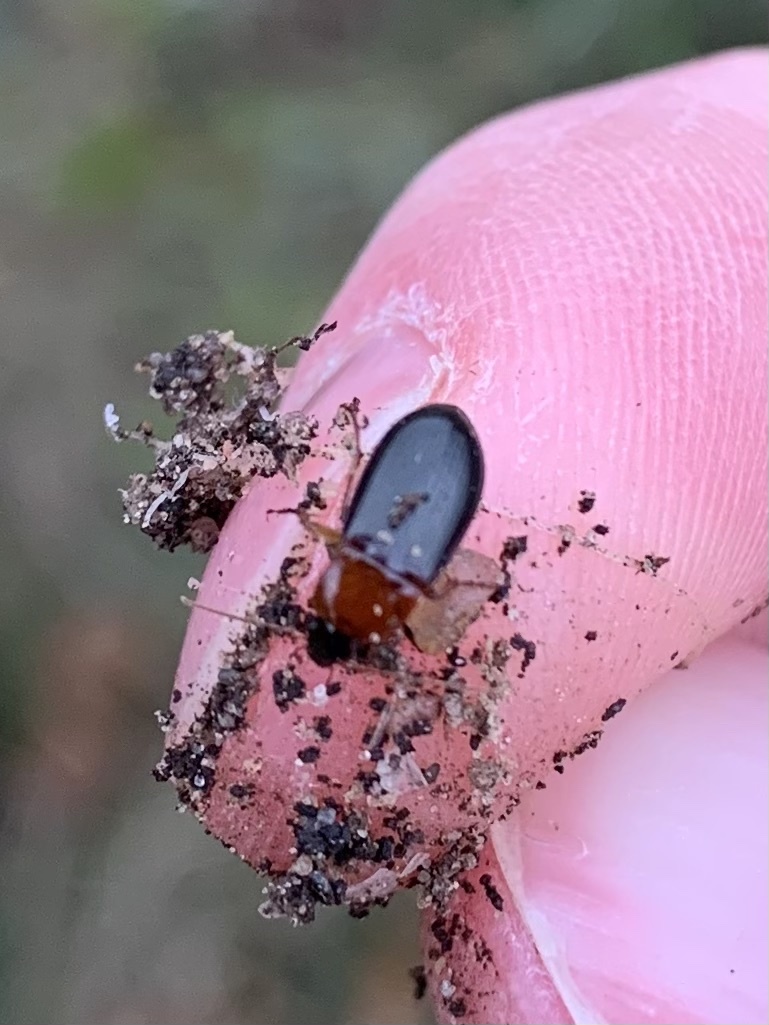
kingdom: Animalia
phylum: Arthropoda
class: Insecta
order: Coleoptera
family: Carabidae
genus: Calathus
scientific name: Calathus melanocephalus
